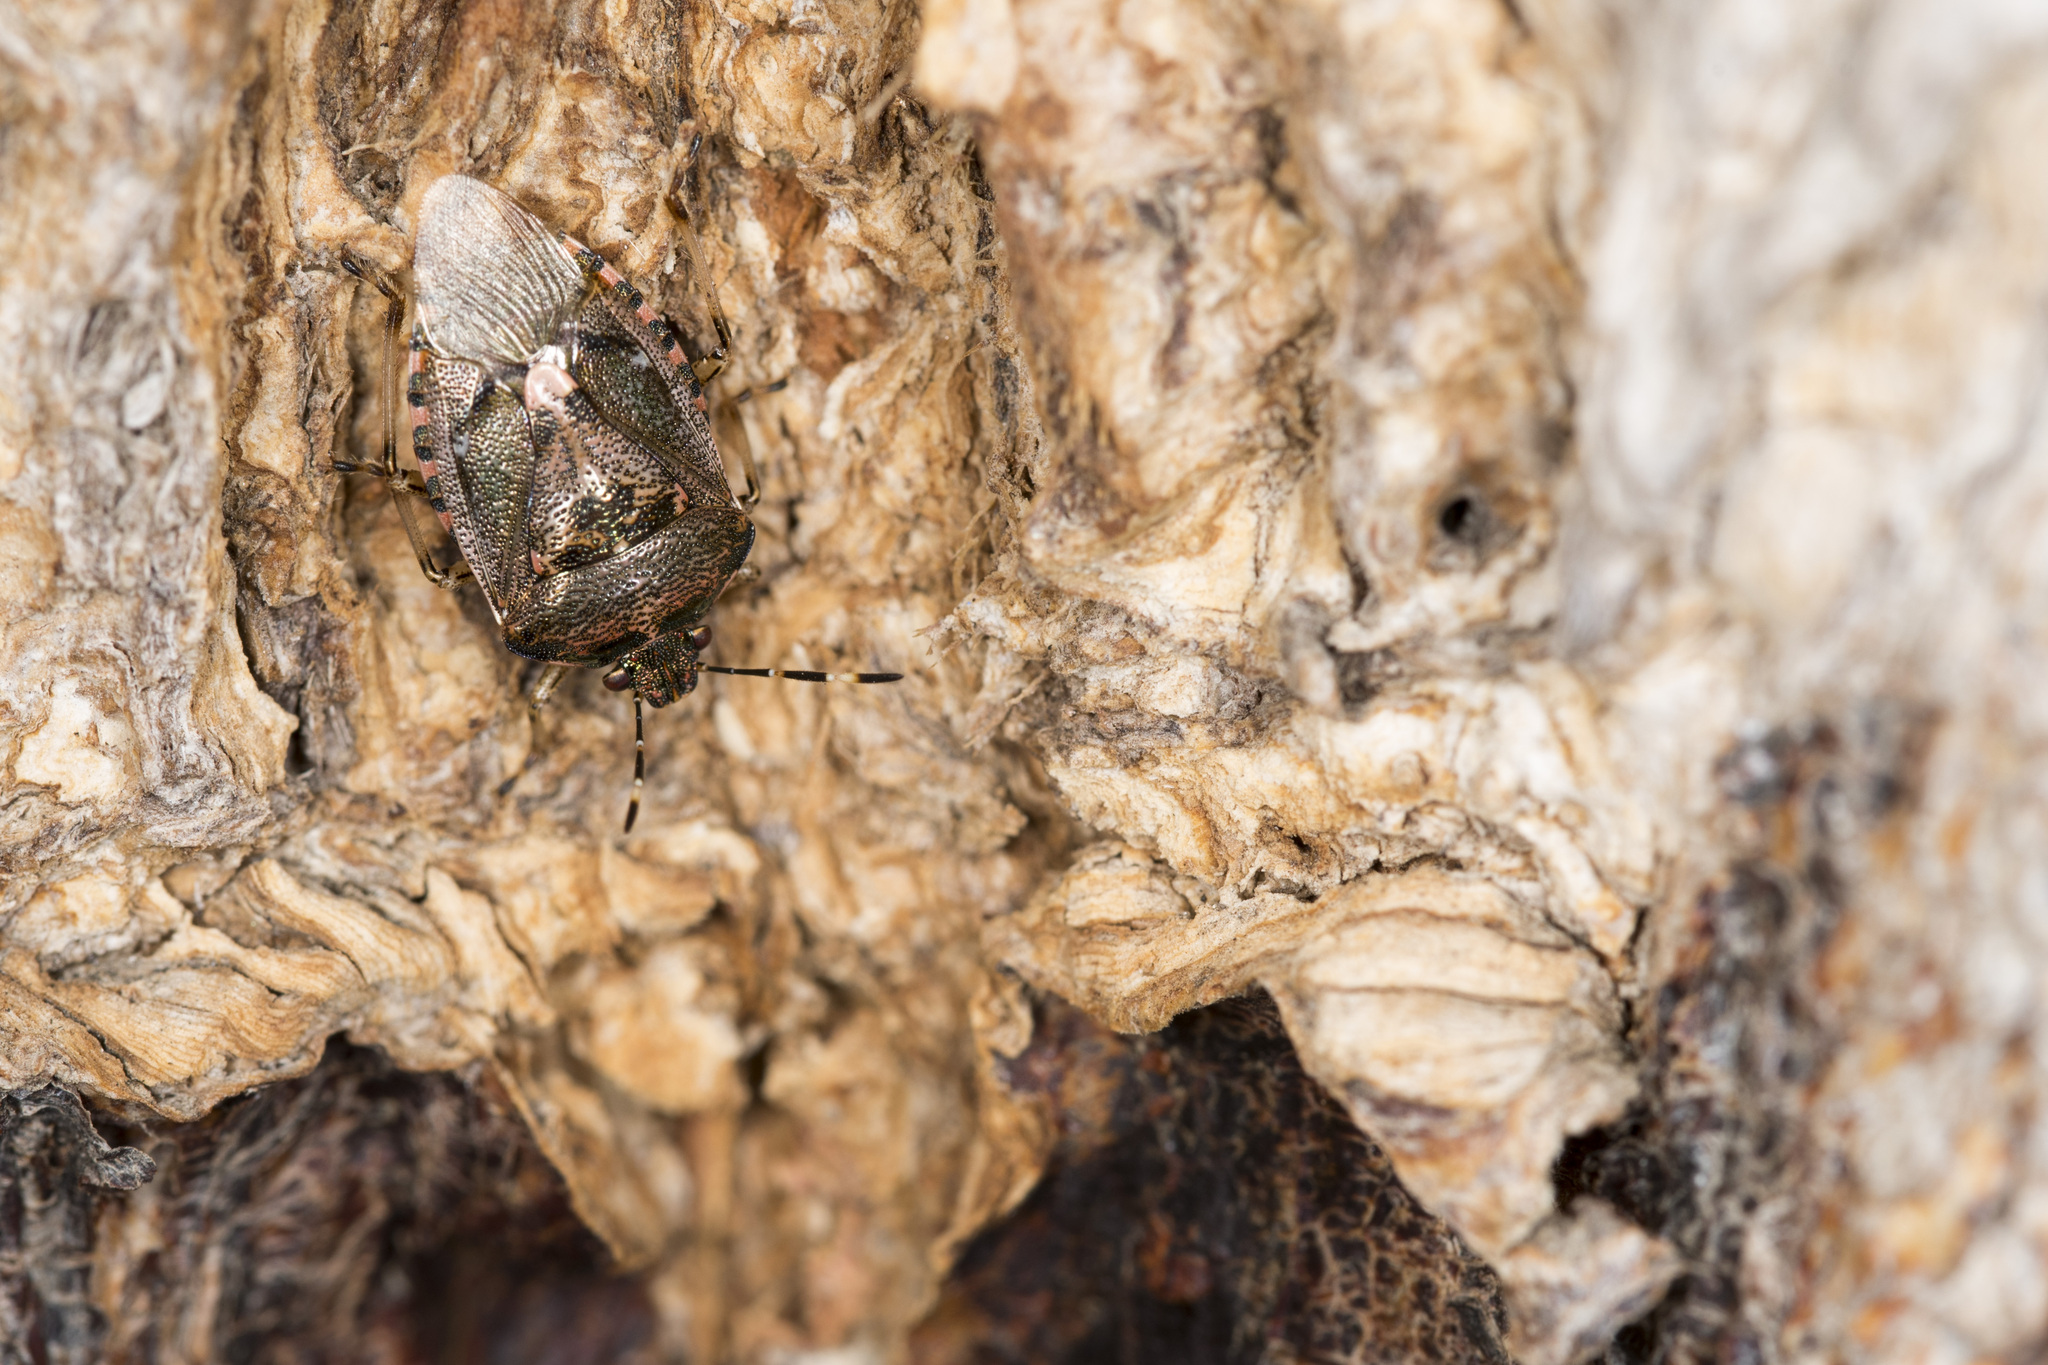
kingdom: Animalia
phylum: Arthropoda
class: Insecta
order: Hemiptera
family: Pentatomidae
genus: Menida
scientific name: Menida disjecta
